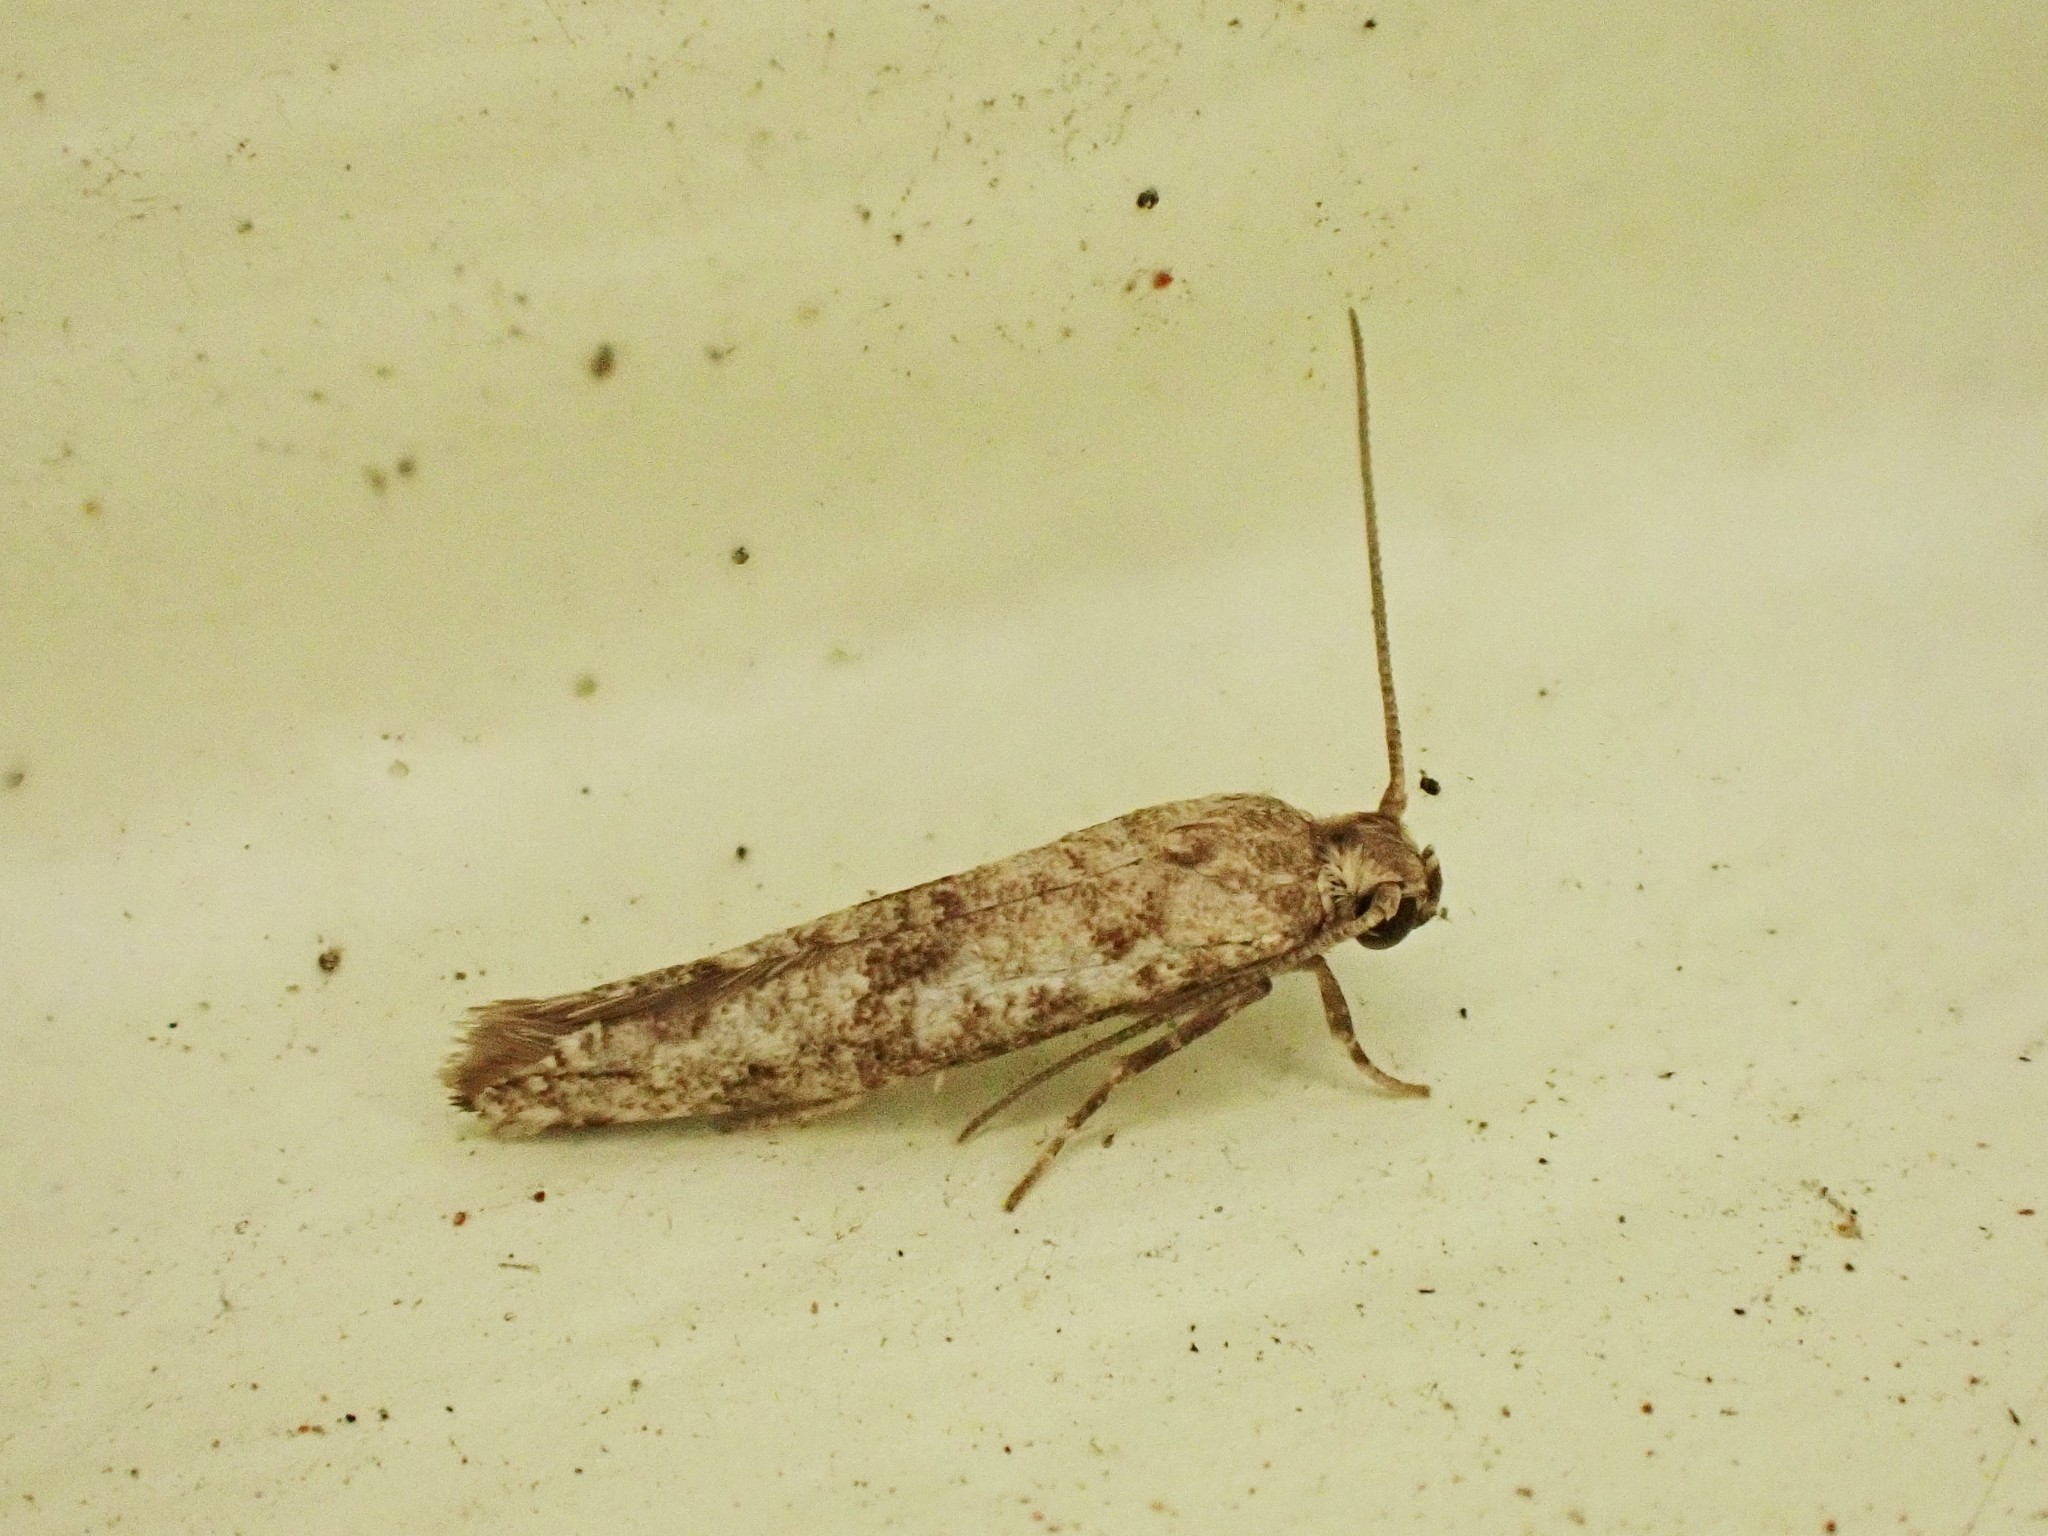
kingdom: Animalia
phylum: Arthropoda
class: Insecta
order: Lepidoptera
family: Praydidae
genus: Prays
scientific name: Prays nephelomima
